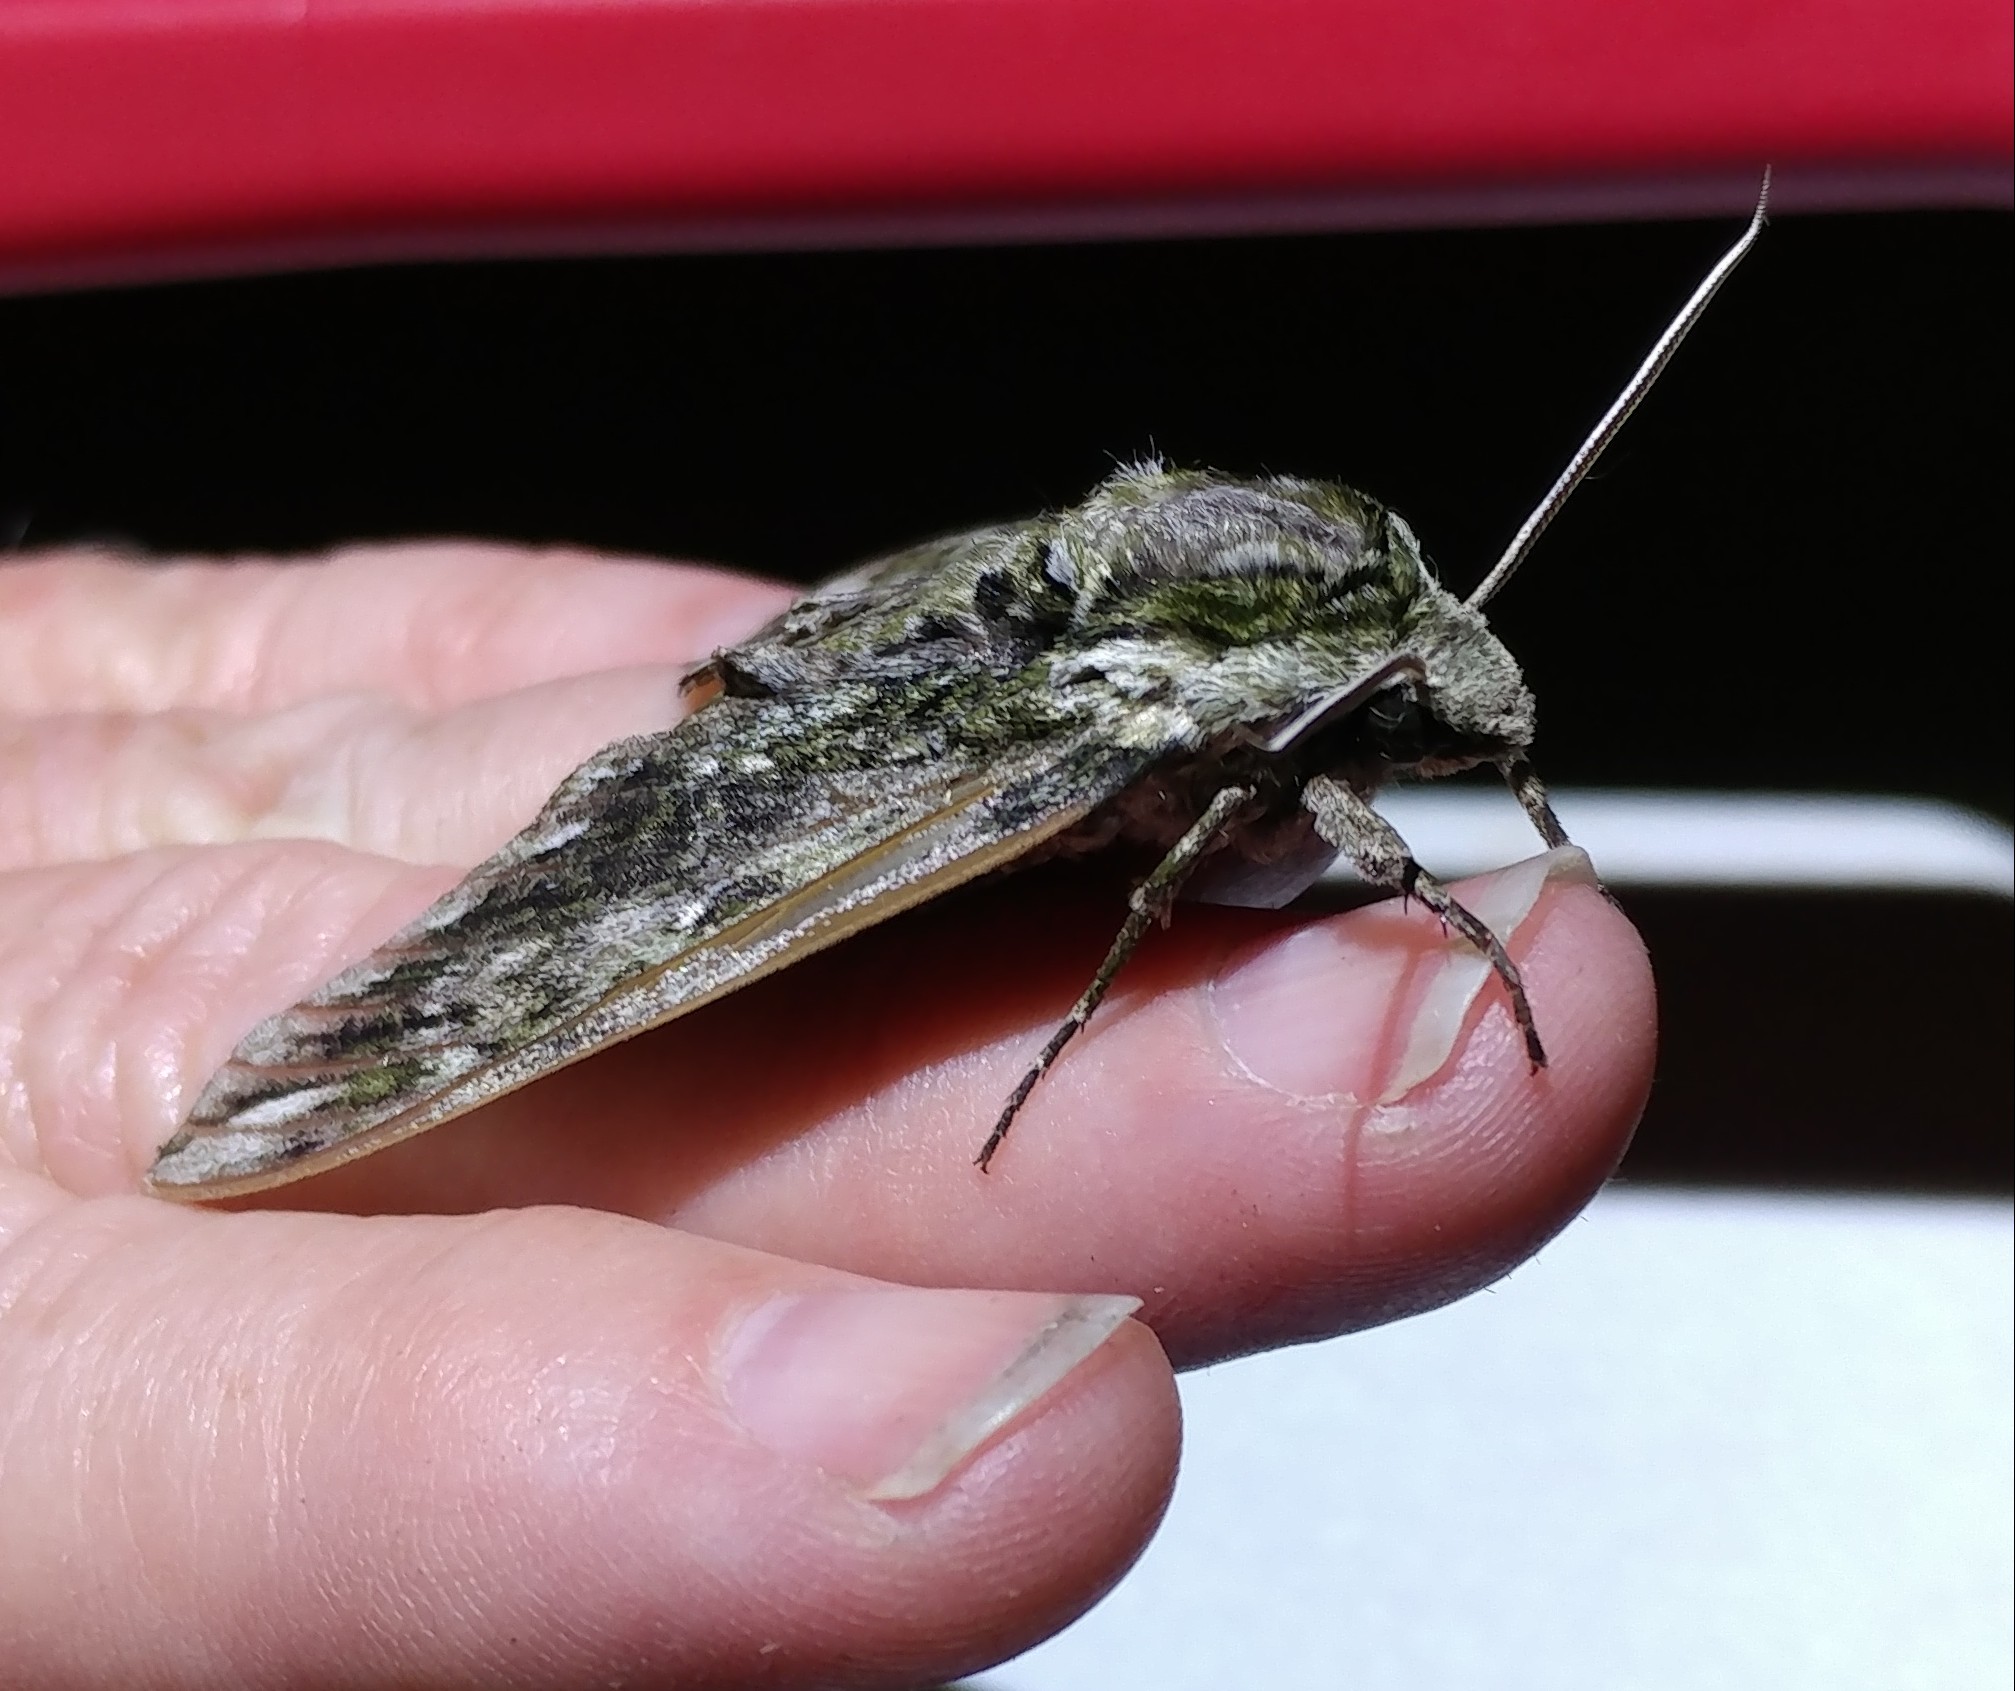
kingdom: Animalia
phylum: Arthropoda
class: Insecta
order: Lepidoptera
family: Sphingidae
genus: Ceratomia
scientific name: Ceratomia hageni
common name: Hagen's sphinx
